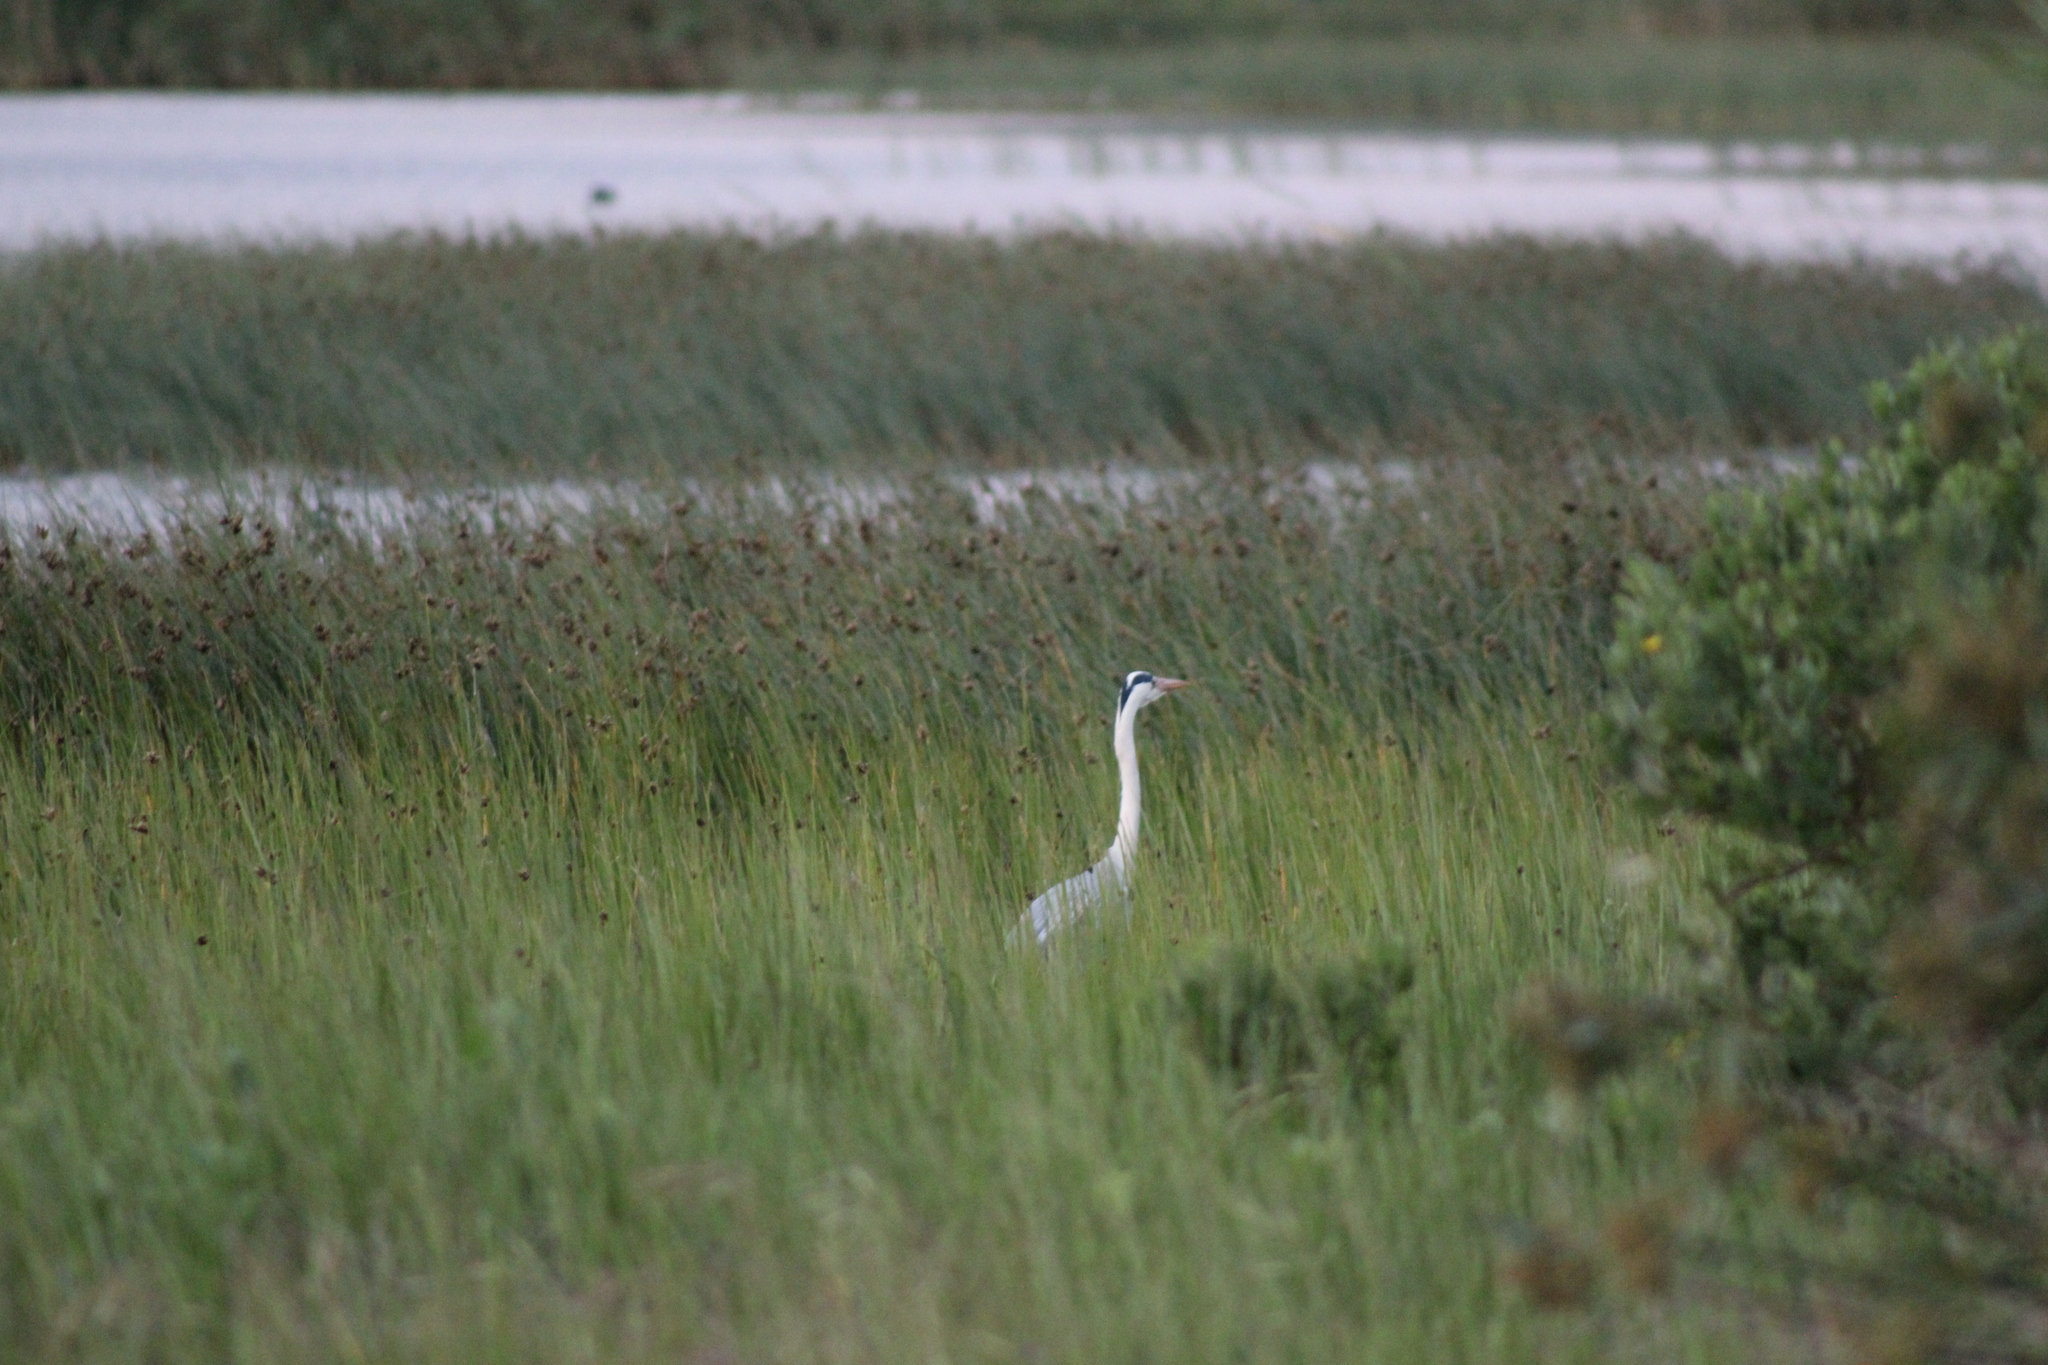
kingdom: Animalia
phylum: Chordata
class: Aves
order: Pelecaniformes
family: Ardeidae
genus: Ardea
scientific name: Ardea cinerea
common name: Grey heron
